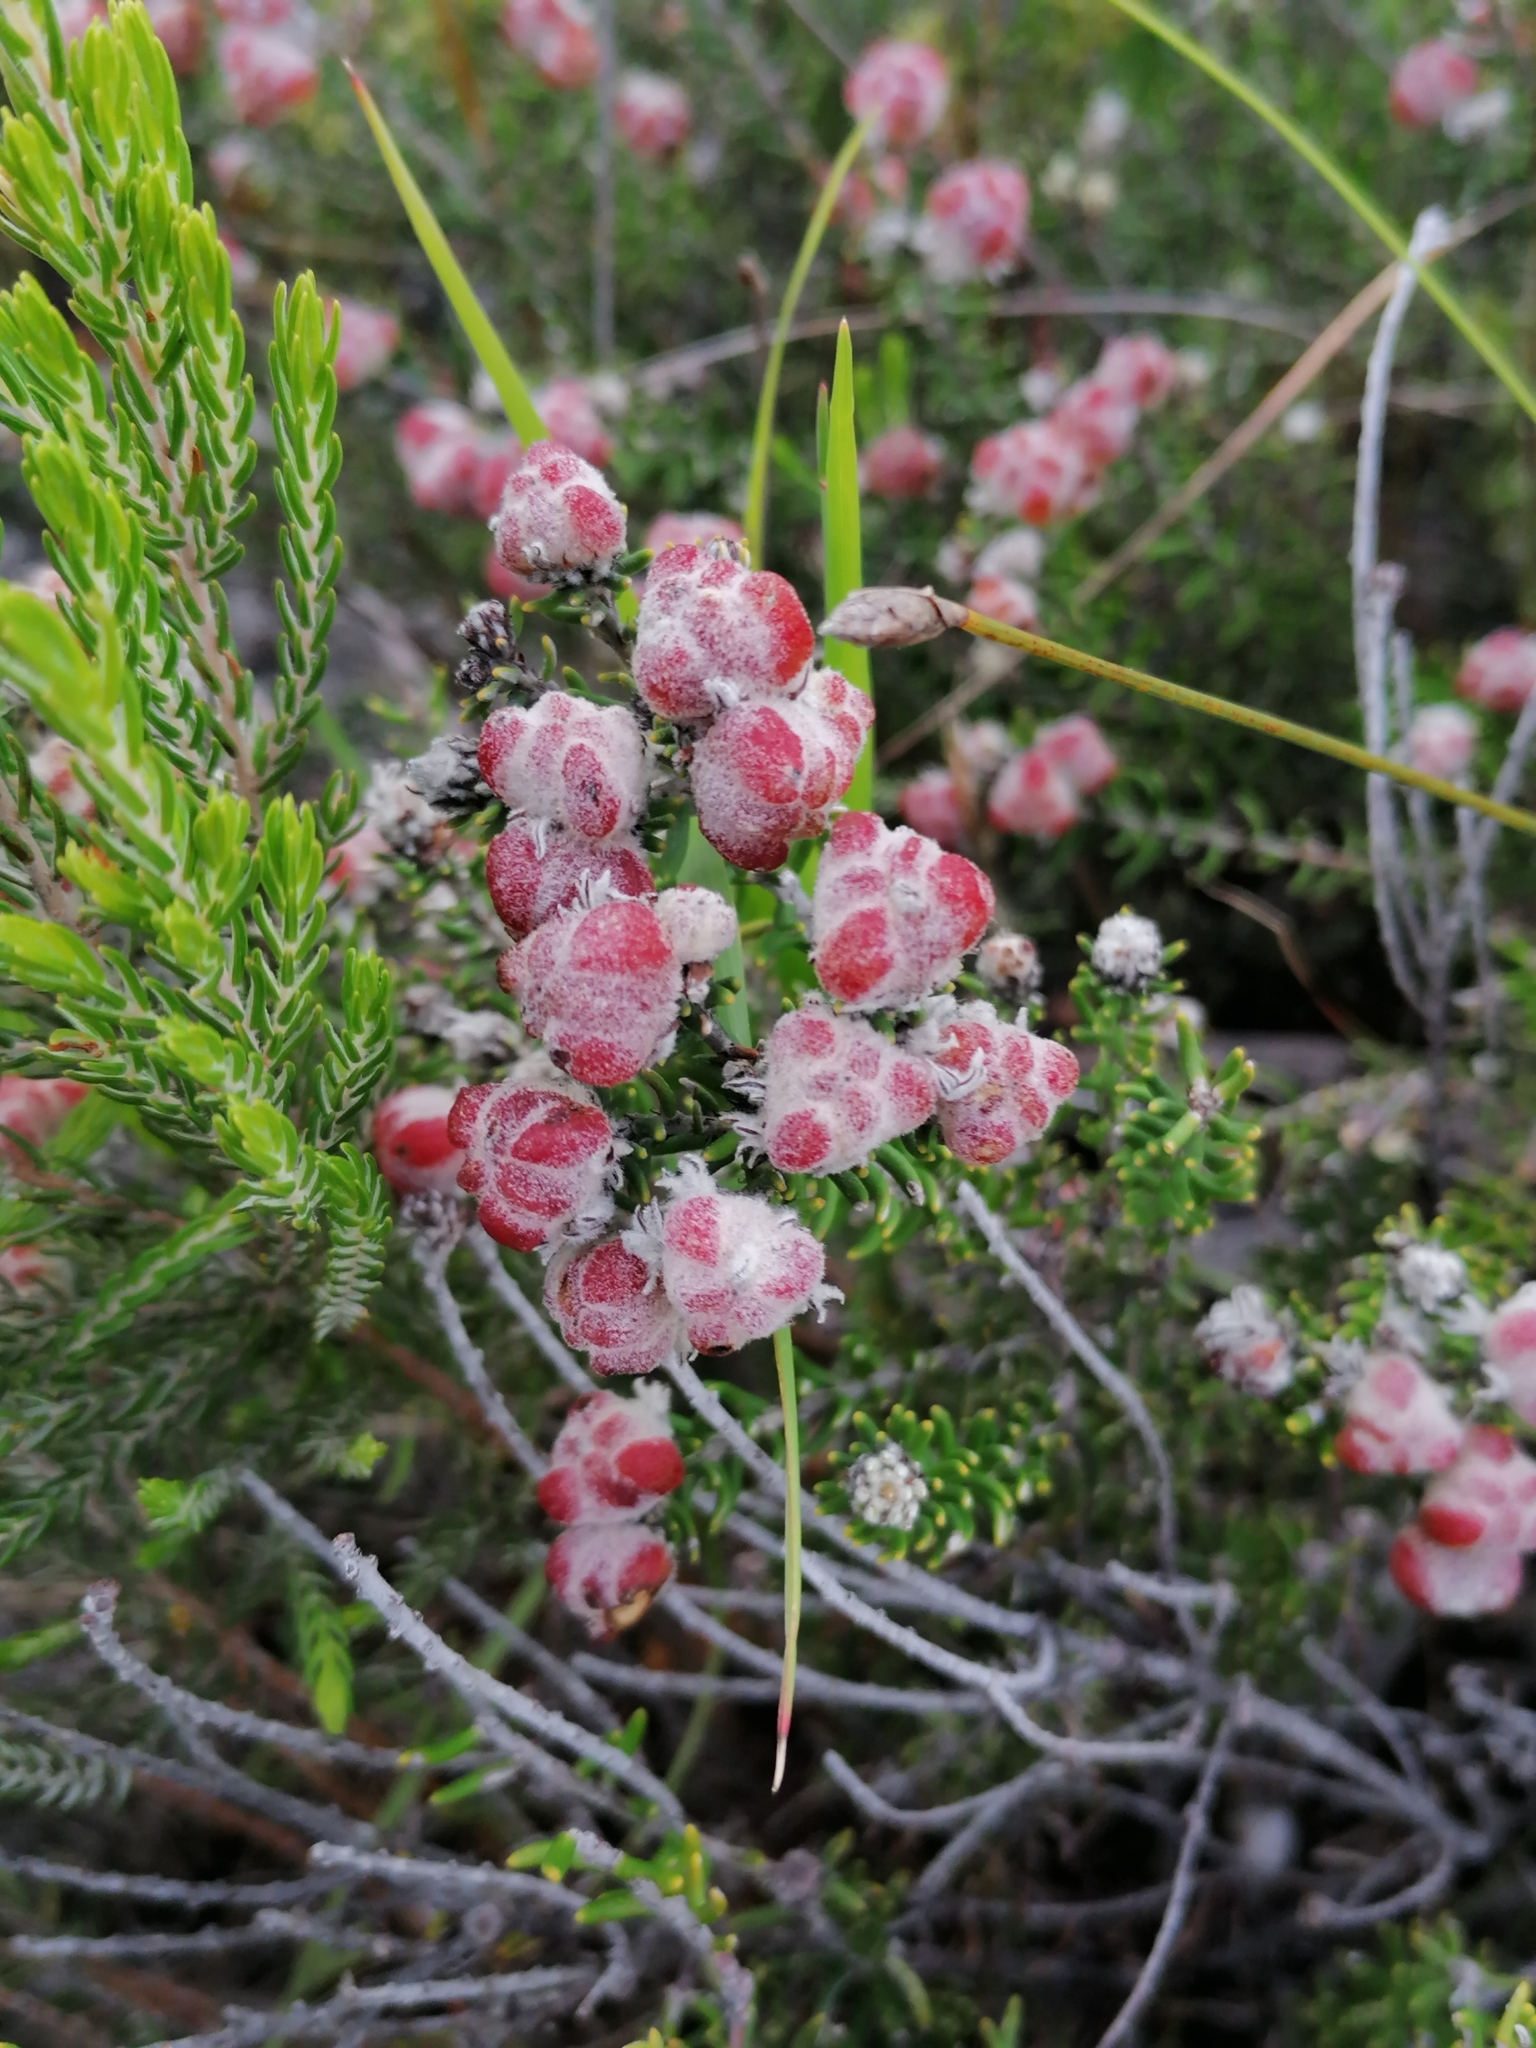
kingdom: Plantae
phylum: Tracheophyta
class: Magnoliopsida
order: Rosales
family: Rhamnaceae
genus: Trichocephalus
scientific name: Trichocephalus stipularis
